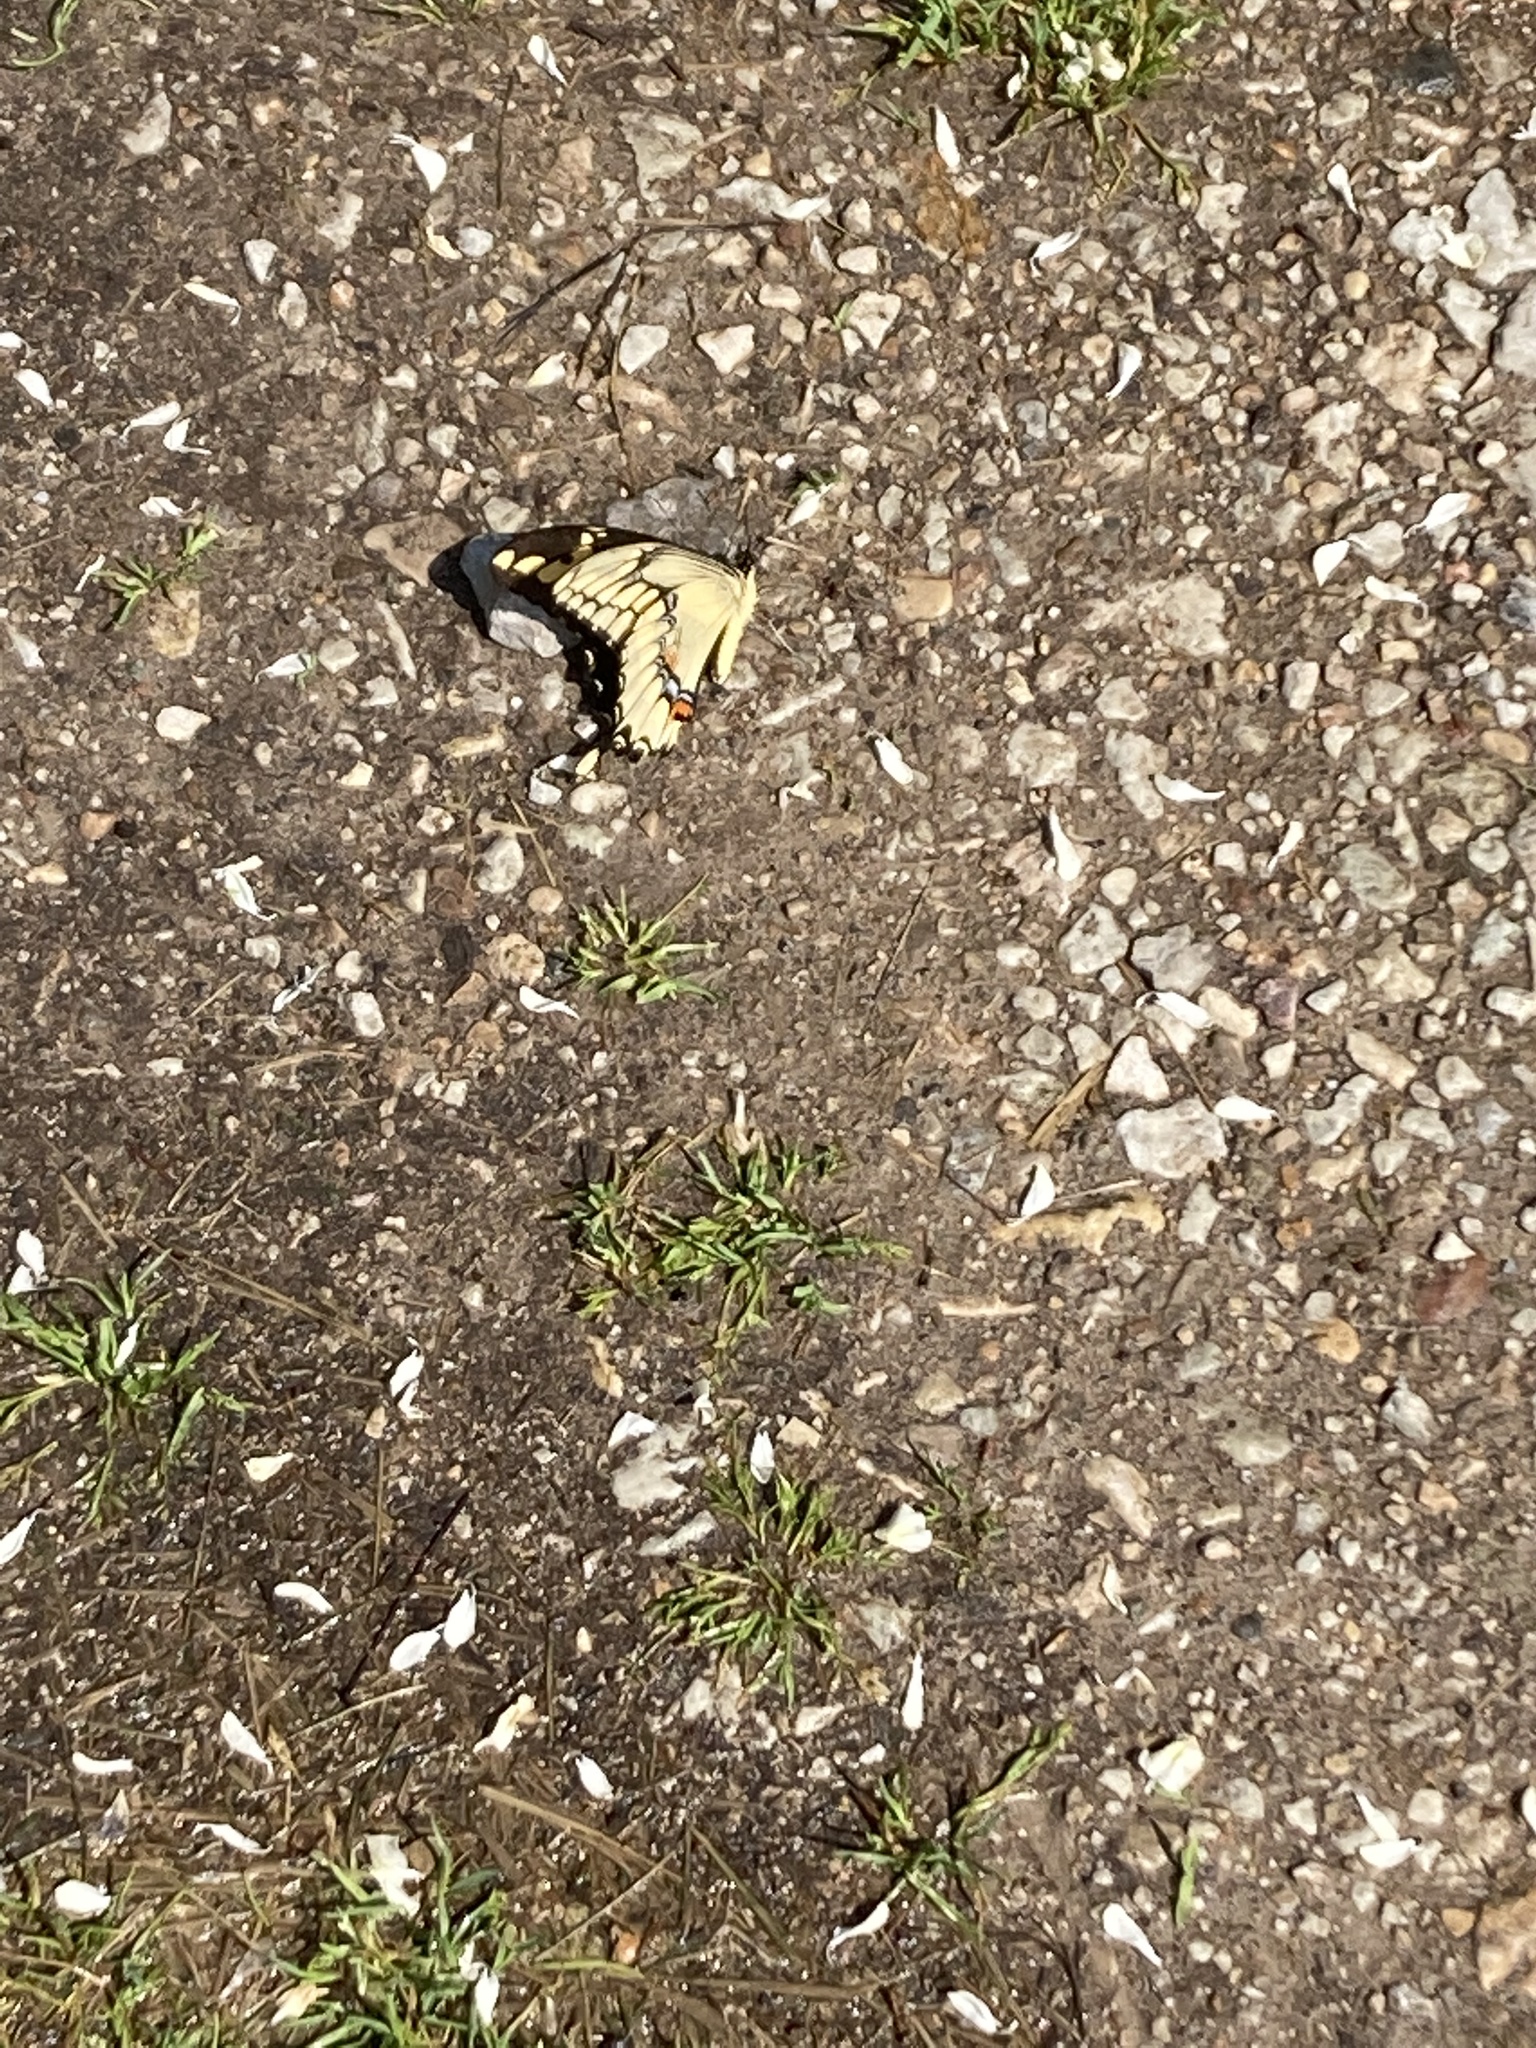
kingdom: Animalia
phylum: Arthropoda
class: Insecta
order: Lepidoptera
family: Papilionidae
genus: Papilio
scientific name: Papilio cresphontes
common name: Giant swallowtail
